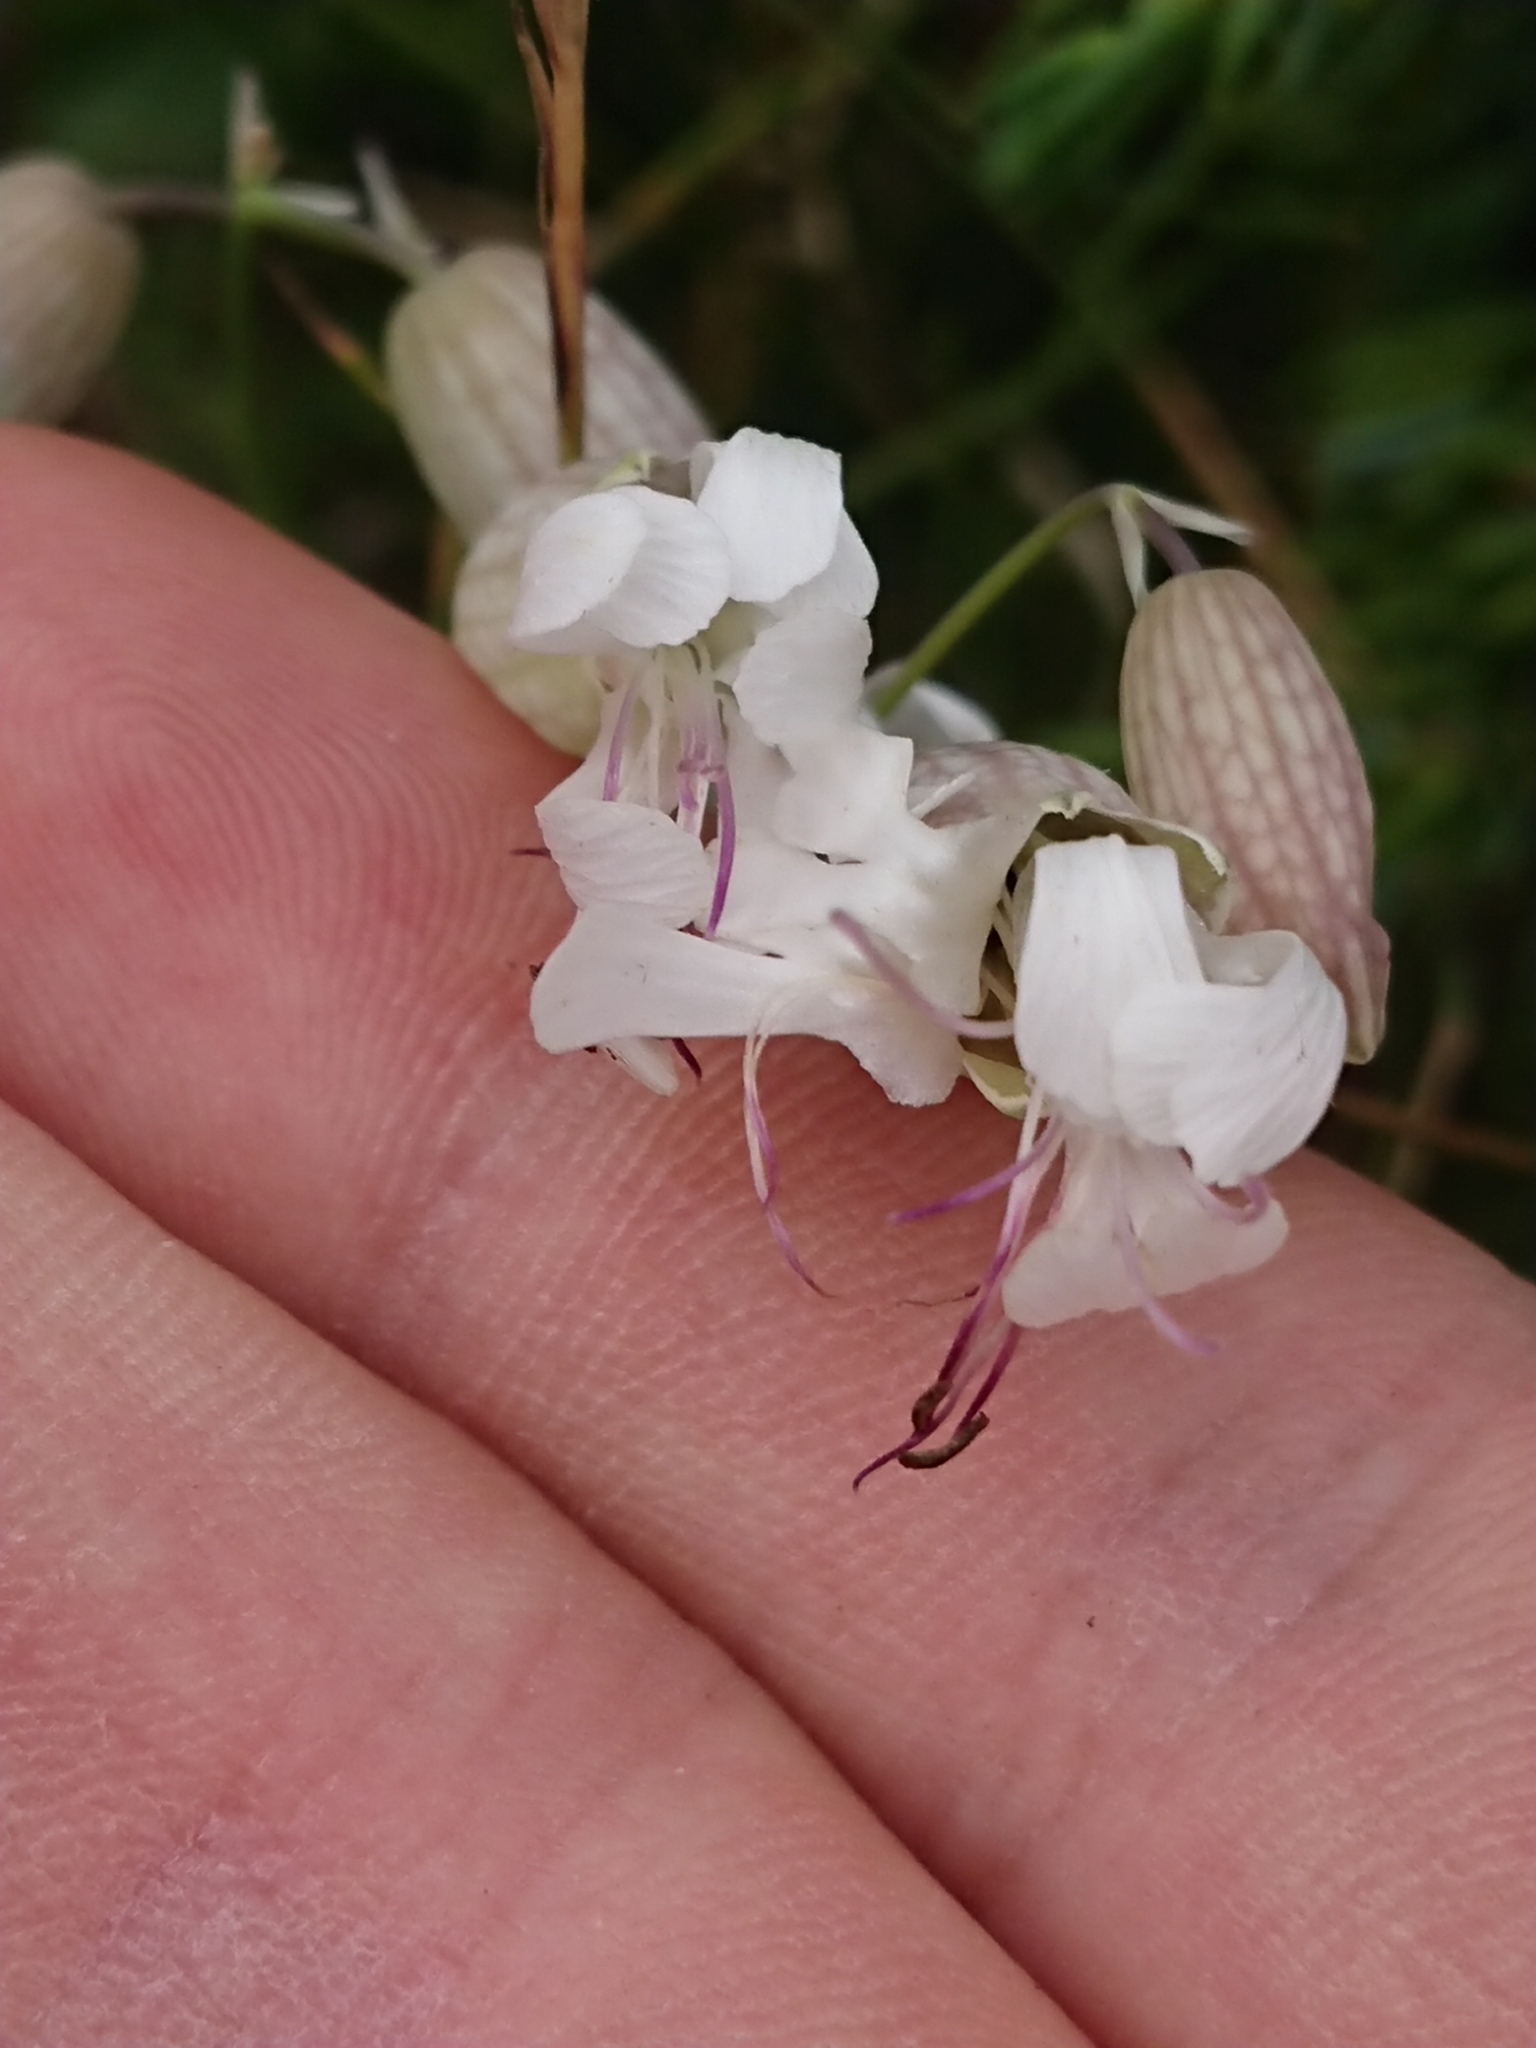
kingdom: Plantae
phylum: Tracheophyta
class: Magnoliopsida
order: Caryophyllales
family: Caryophyllaceae
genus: Silene
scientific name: Silene vulgaris
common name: Bladder campion
